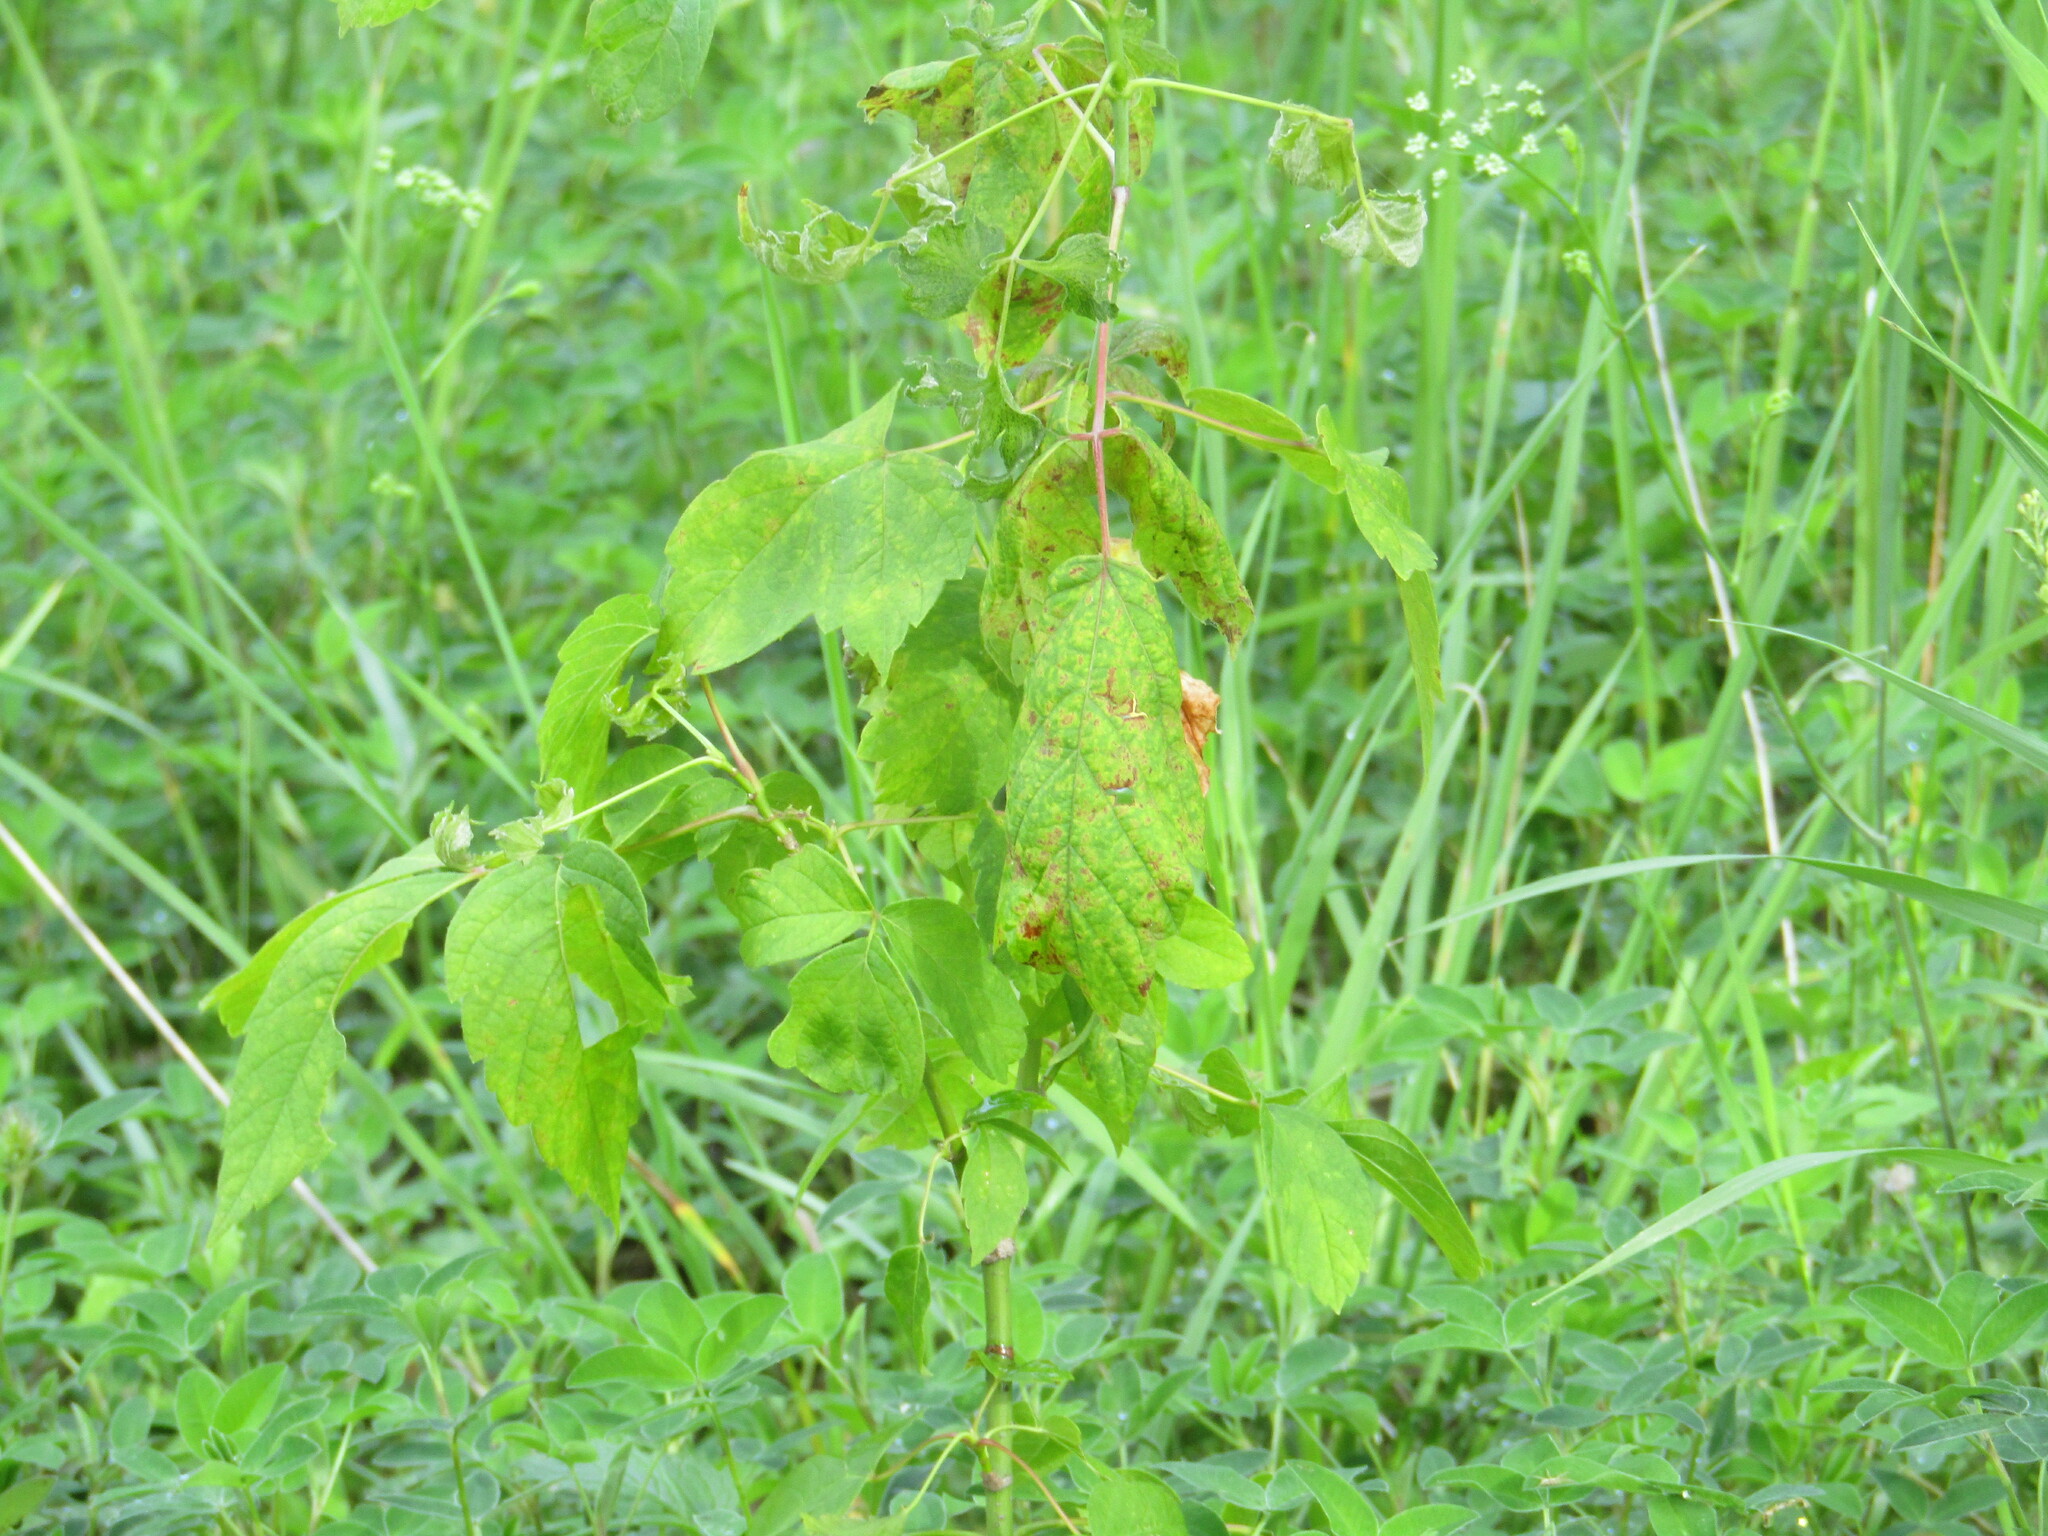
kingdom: Plantae
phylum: Tracheophyta
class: Magnoliopsida
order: Sapindales
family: Sapindaceae
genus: Acer
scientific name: Acer negundo
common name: Ashleaf maple
